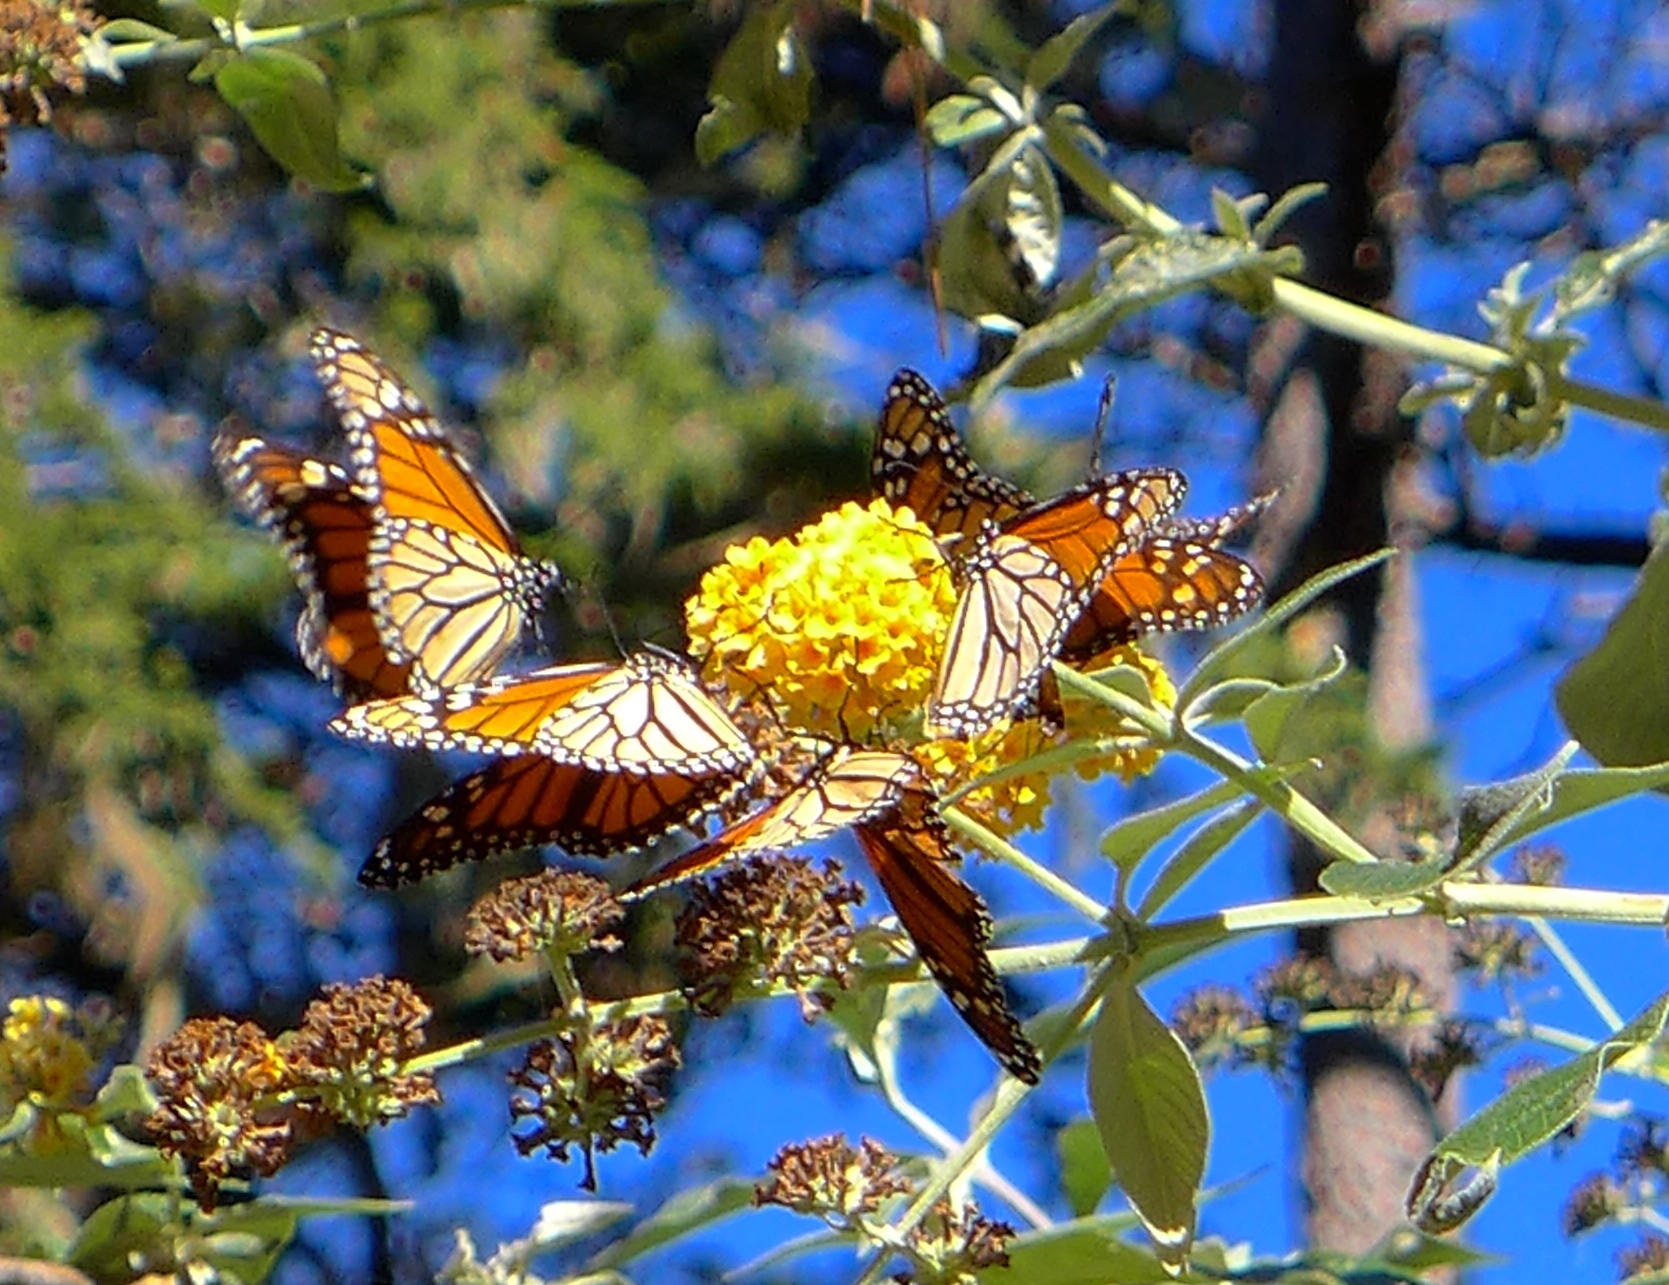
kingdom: Animalia
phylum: Arthropoda
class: Insecta
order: Lepidoptera
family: Nymphalidae
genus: Danaus
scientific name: Danaus plexippus
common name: Monarch
